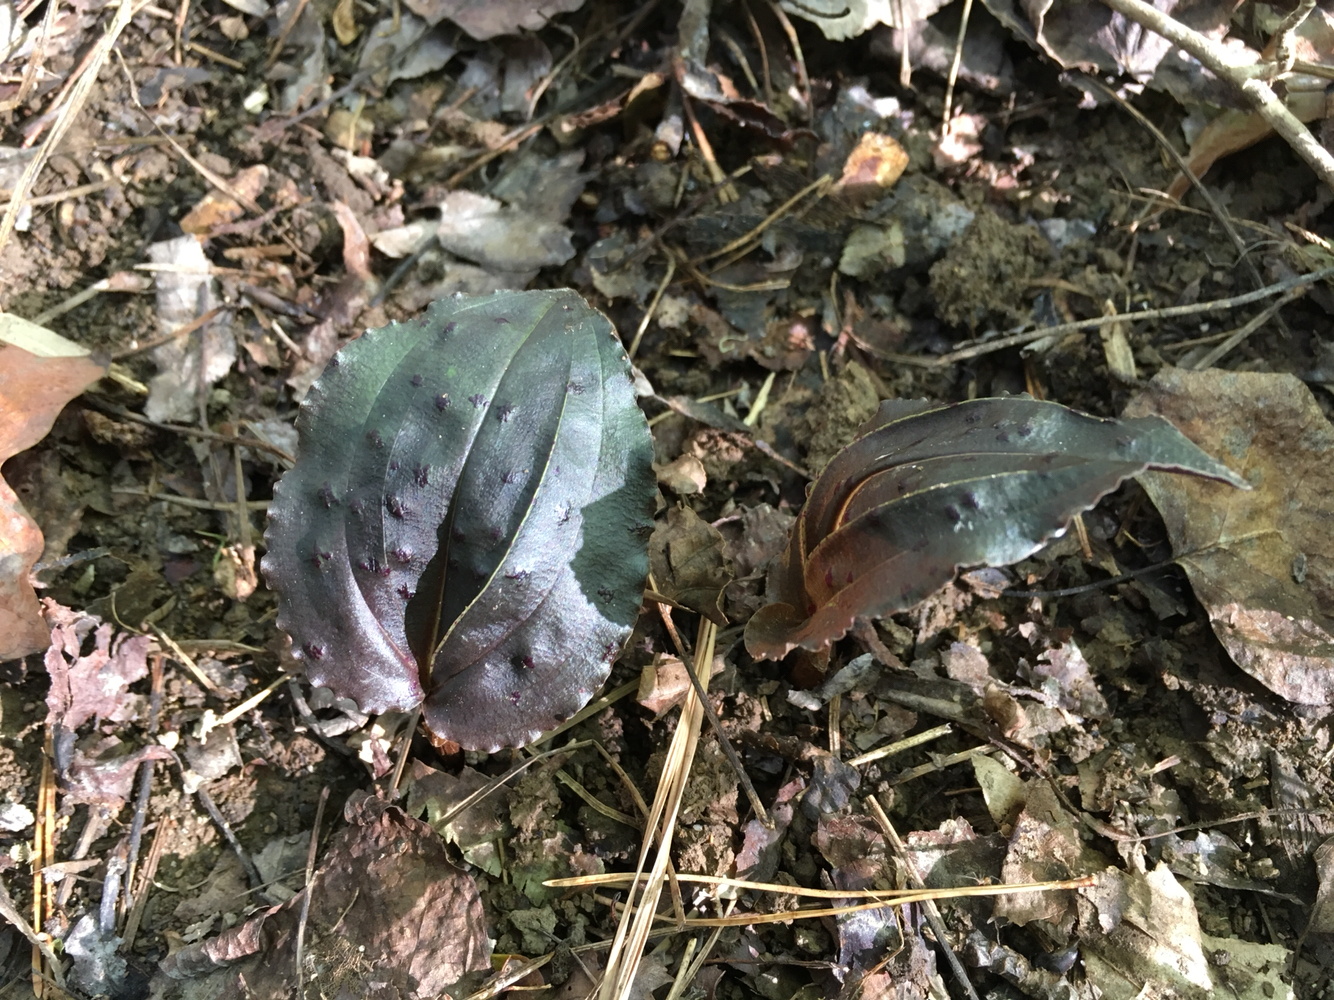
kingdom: Plantae
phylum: Tracheophyta
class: Liliopsida
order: Asparagales
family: Orchidaceae
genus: Tipularia
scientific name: Tipularia discolor
